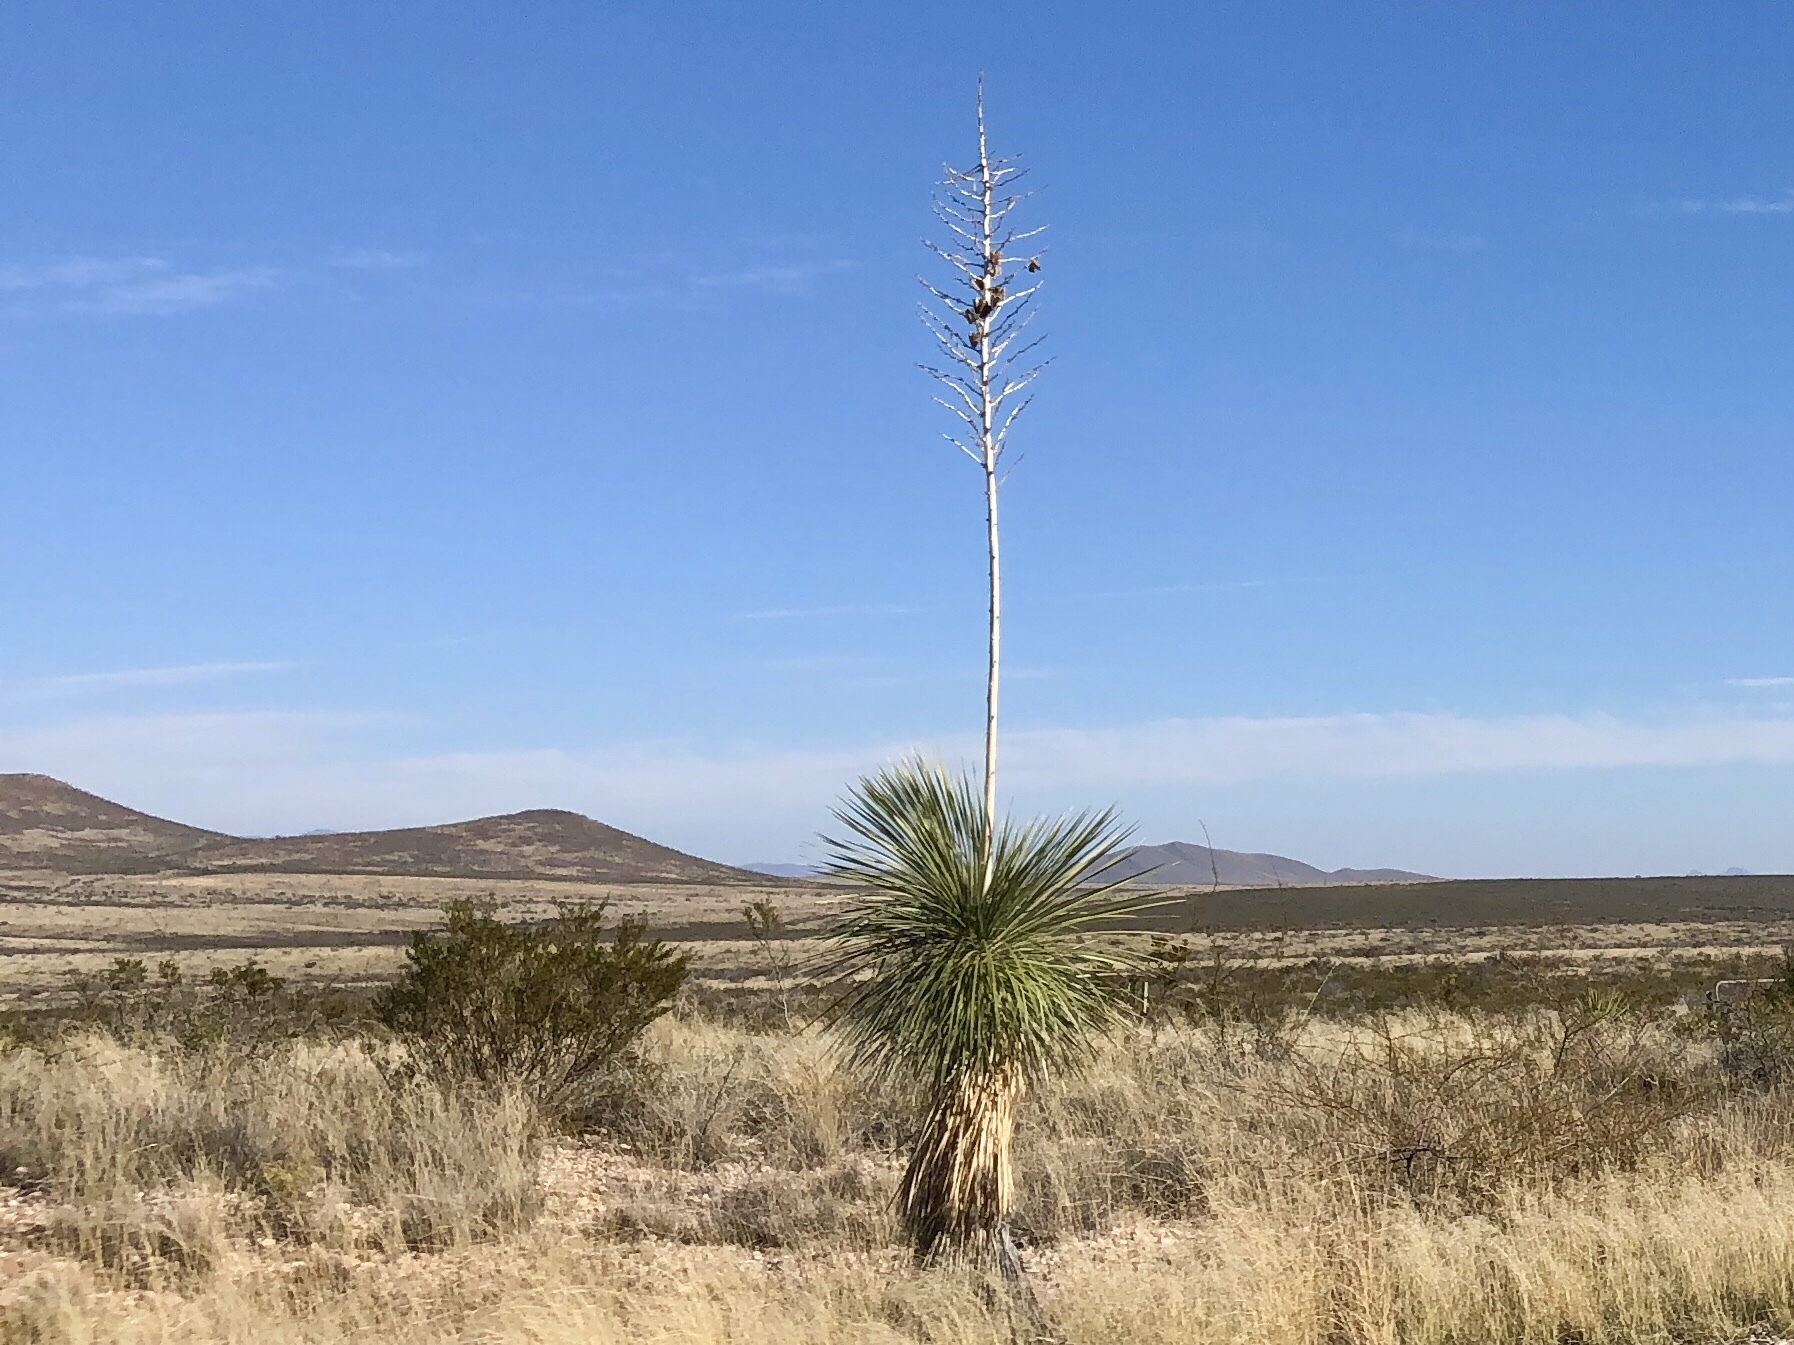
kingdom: Plantae
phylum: Tracheophyta
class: Liliopsida
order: Asparagales
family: Asparagaceae
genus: Yucca
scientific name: Yucca elata
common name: Palmella
